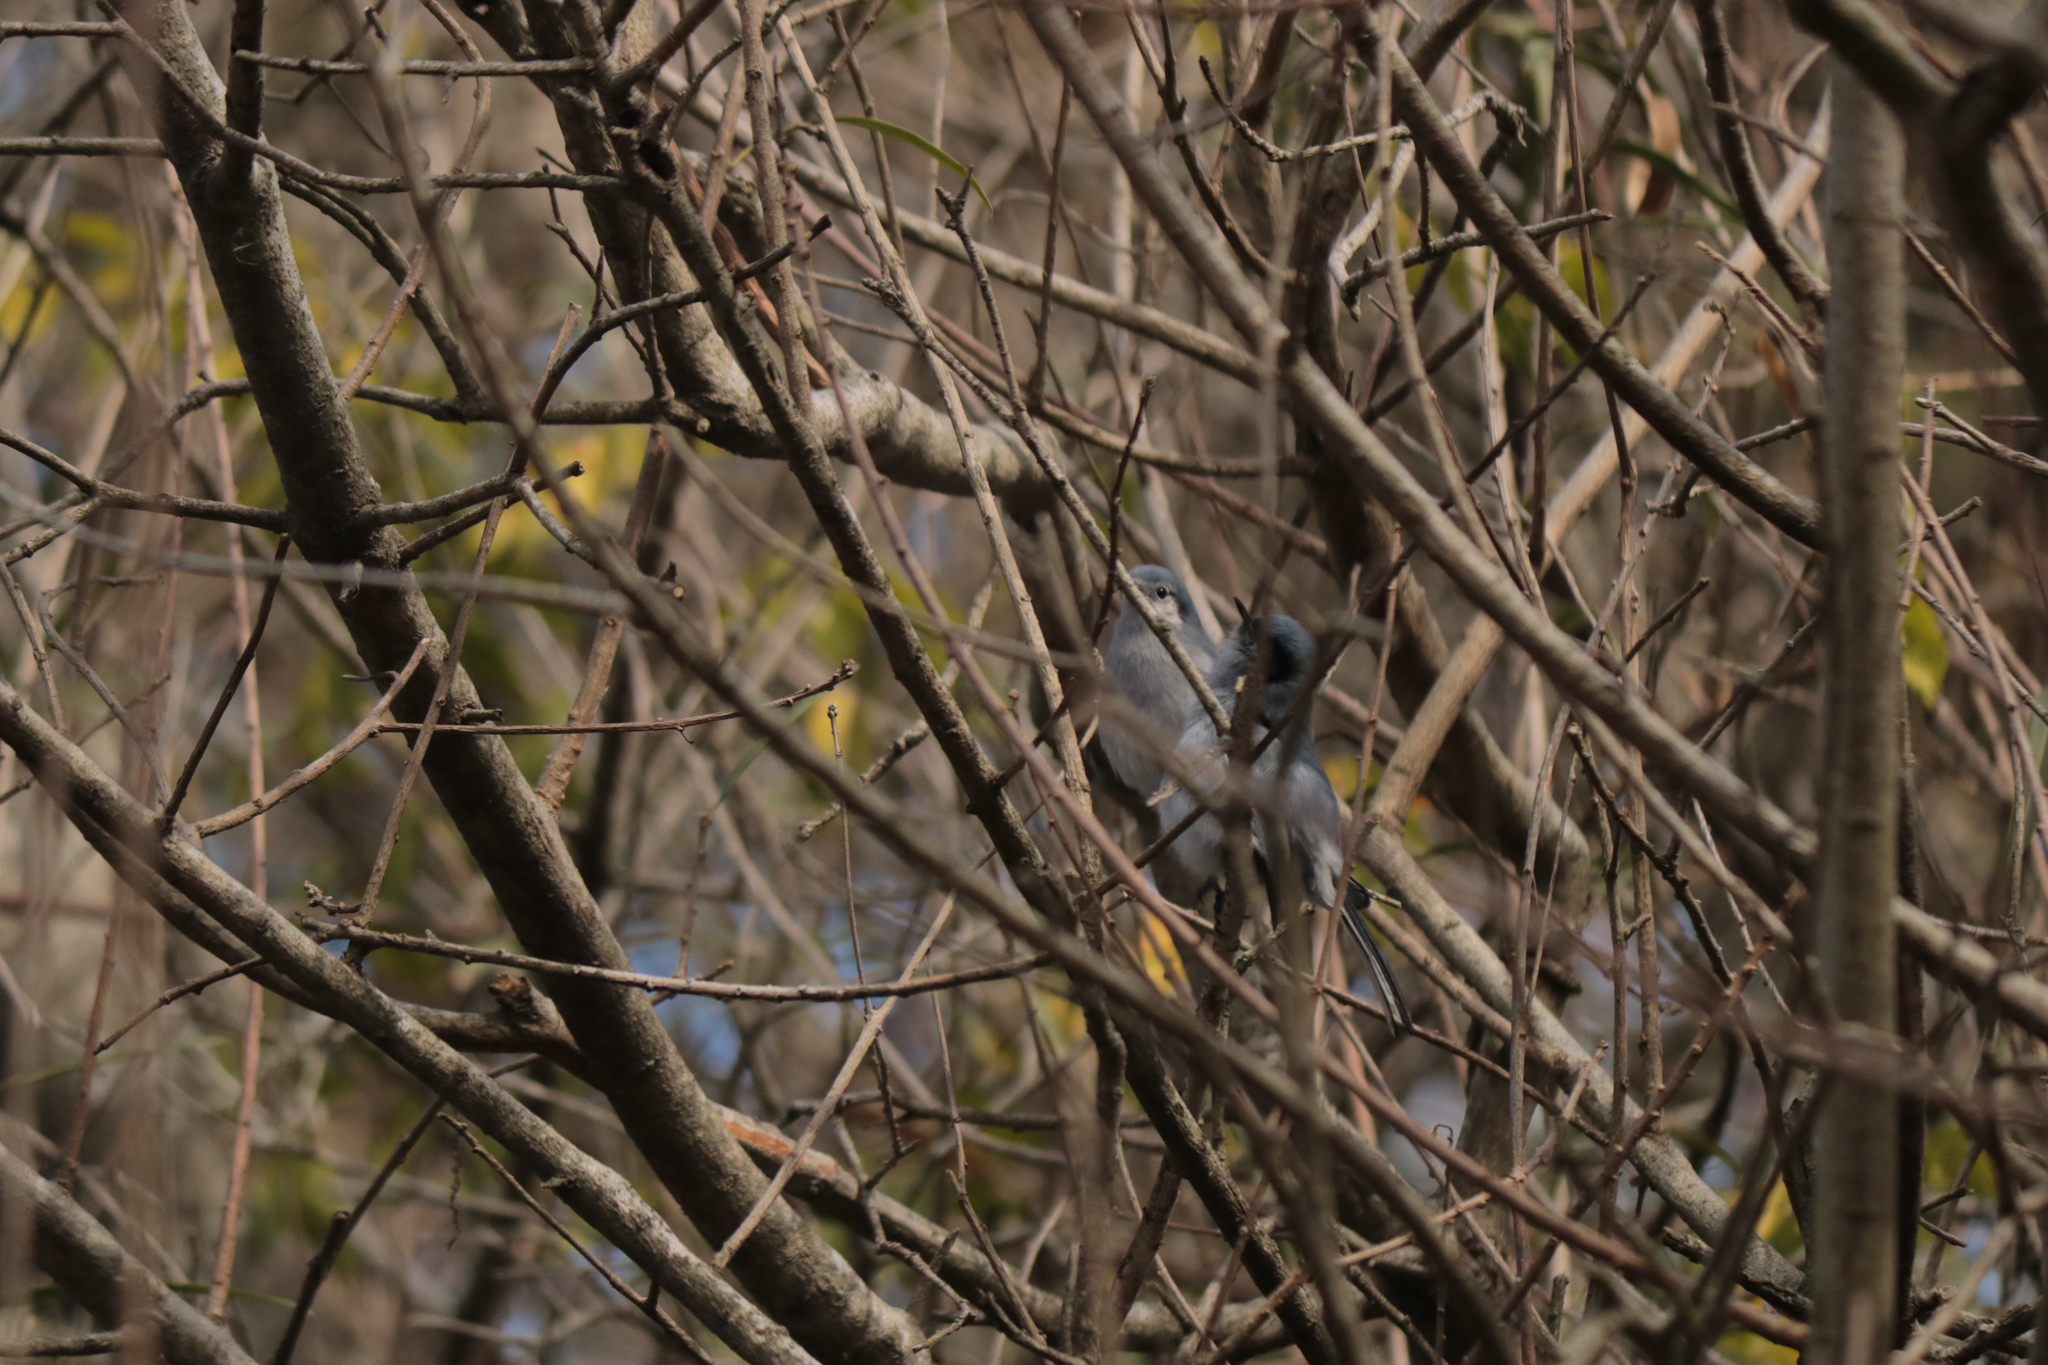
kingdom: Animalia
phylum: Chordata
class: Aves
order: Passeriformes
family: Polioptilidae
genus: Polioptila
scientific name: Polioptila dumicola
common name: Masked gnatcatcher
